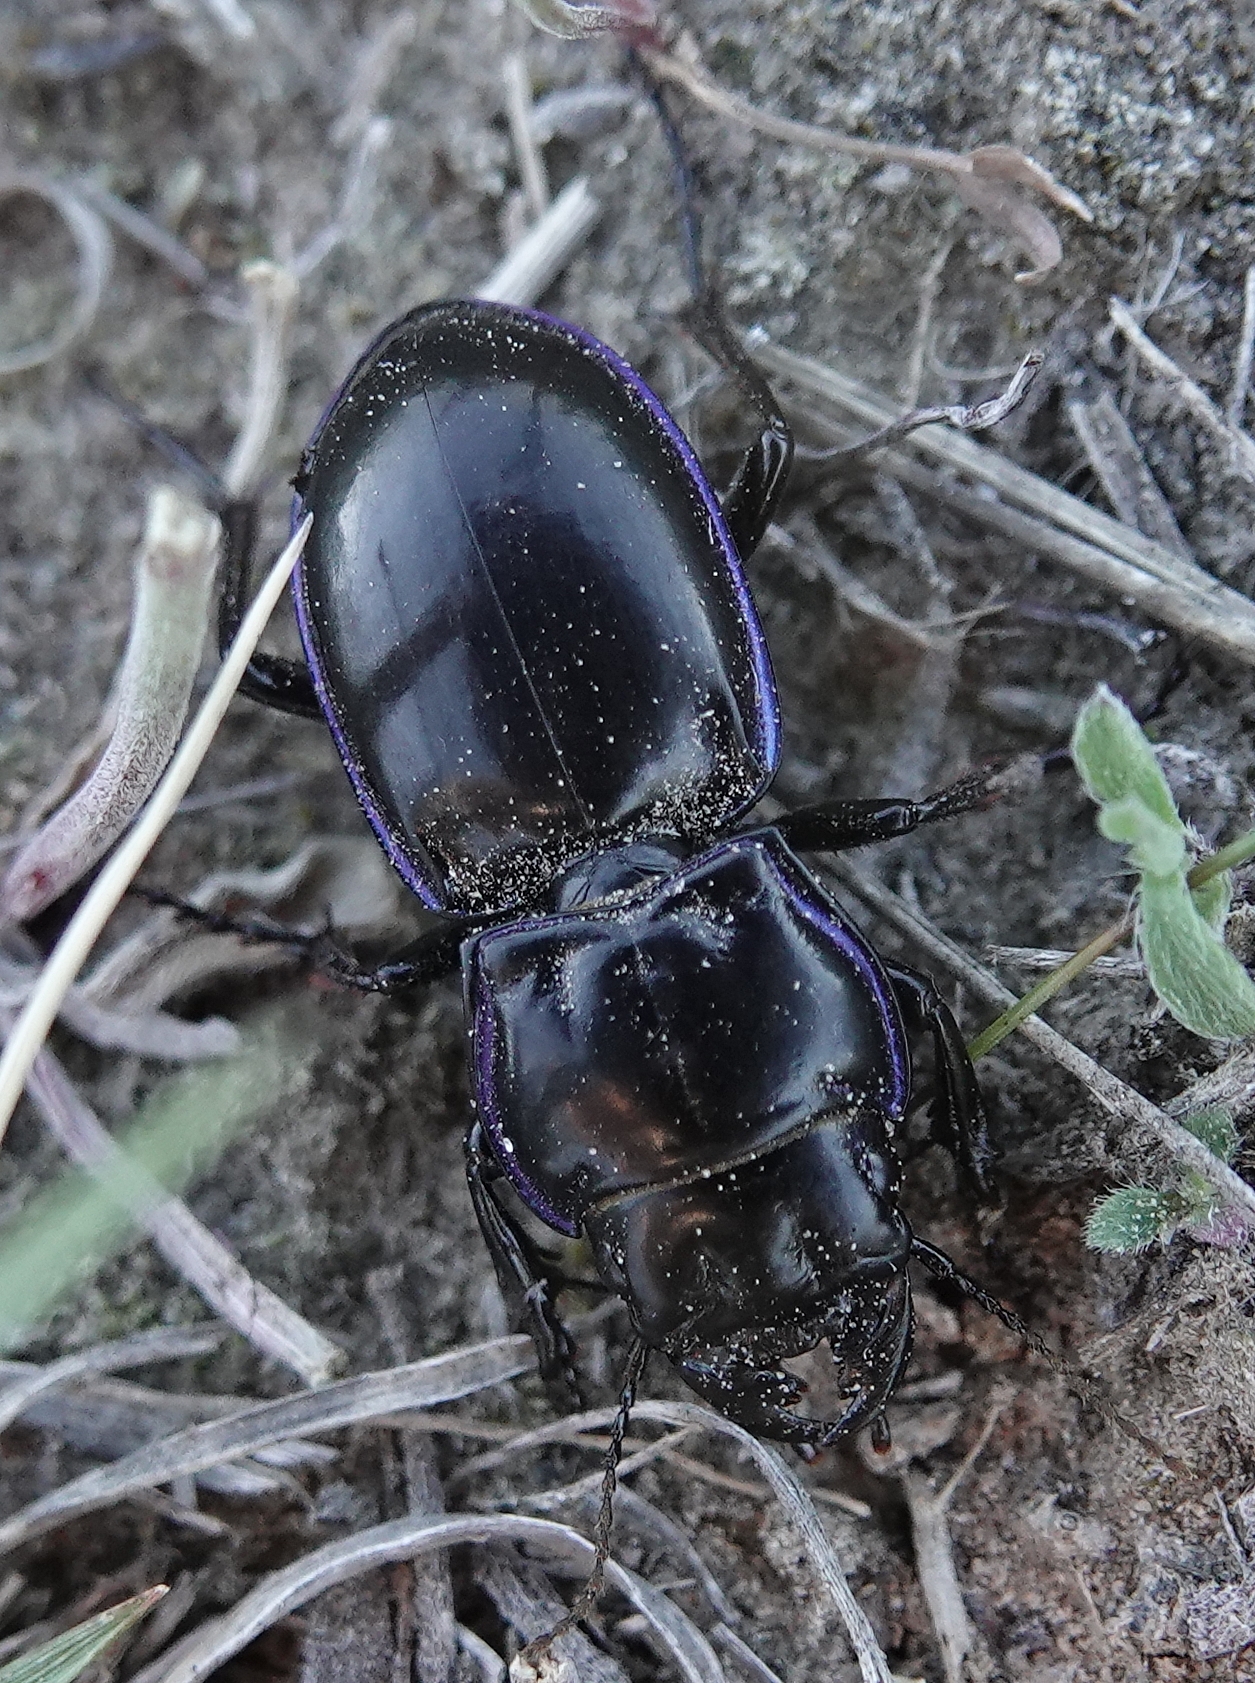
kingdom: Animalia
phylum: Arthropoda
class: Insecta
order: Coleoptera
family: Carabidae
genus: Pasimachus
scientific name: Pasimachus elongatus
